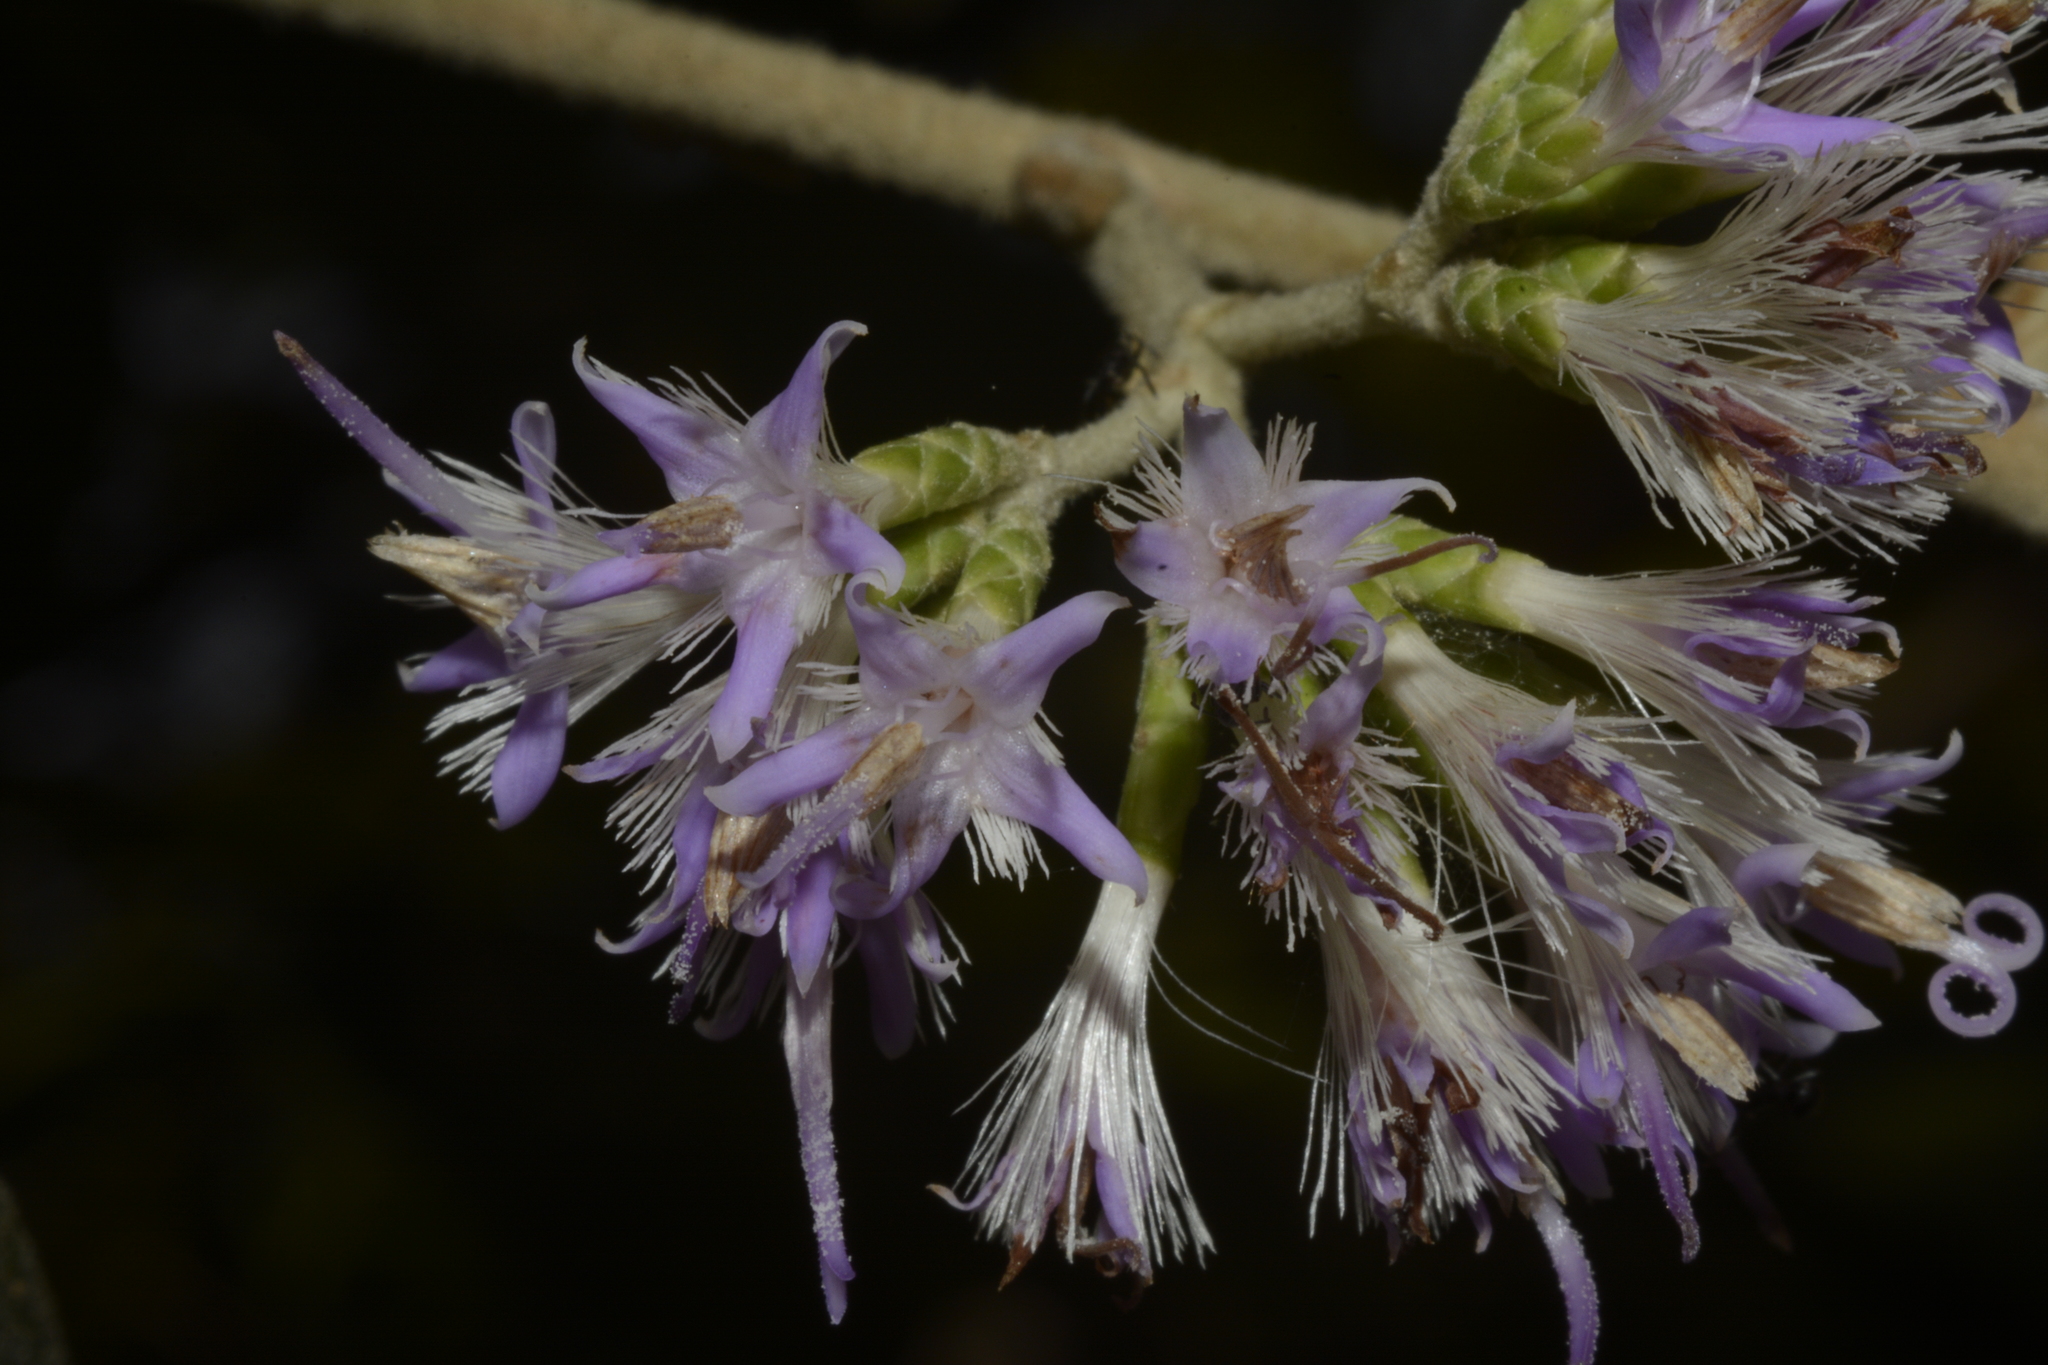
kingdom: Plantae
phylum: Tracheophyta
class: Magnoliopsida
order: Asterales
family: Asteraceae
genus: Strobocalyx
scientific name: Strobocalyx arborea
